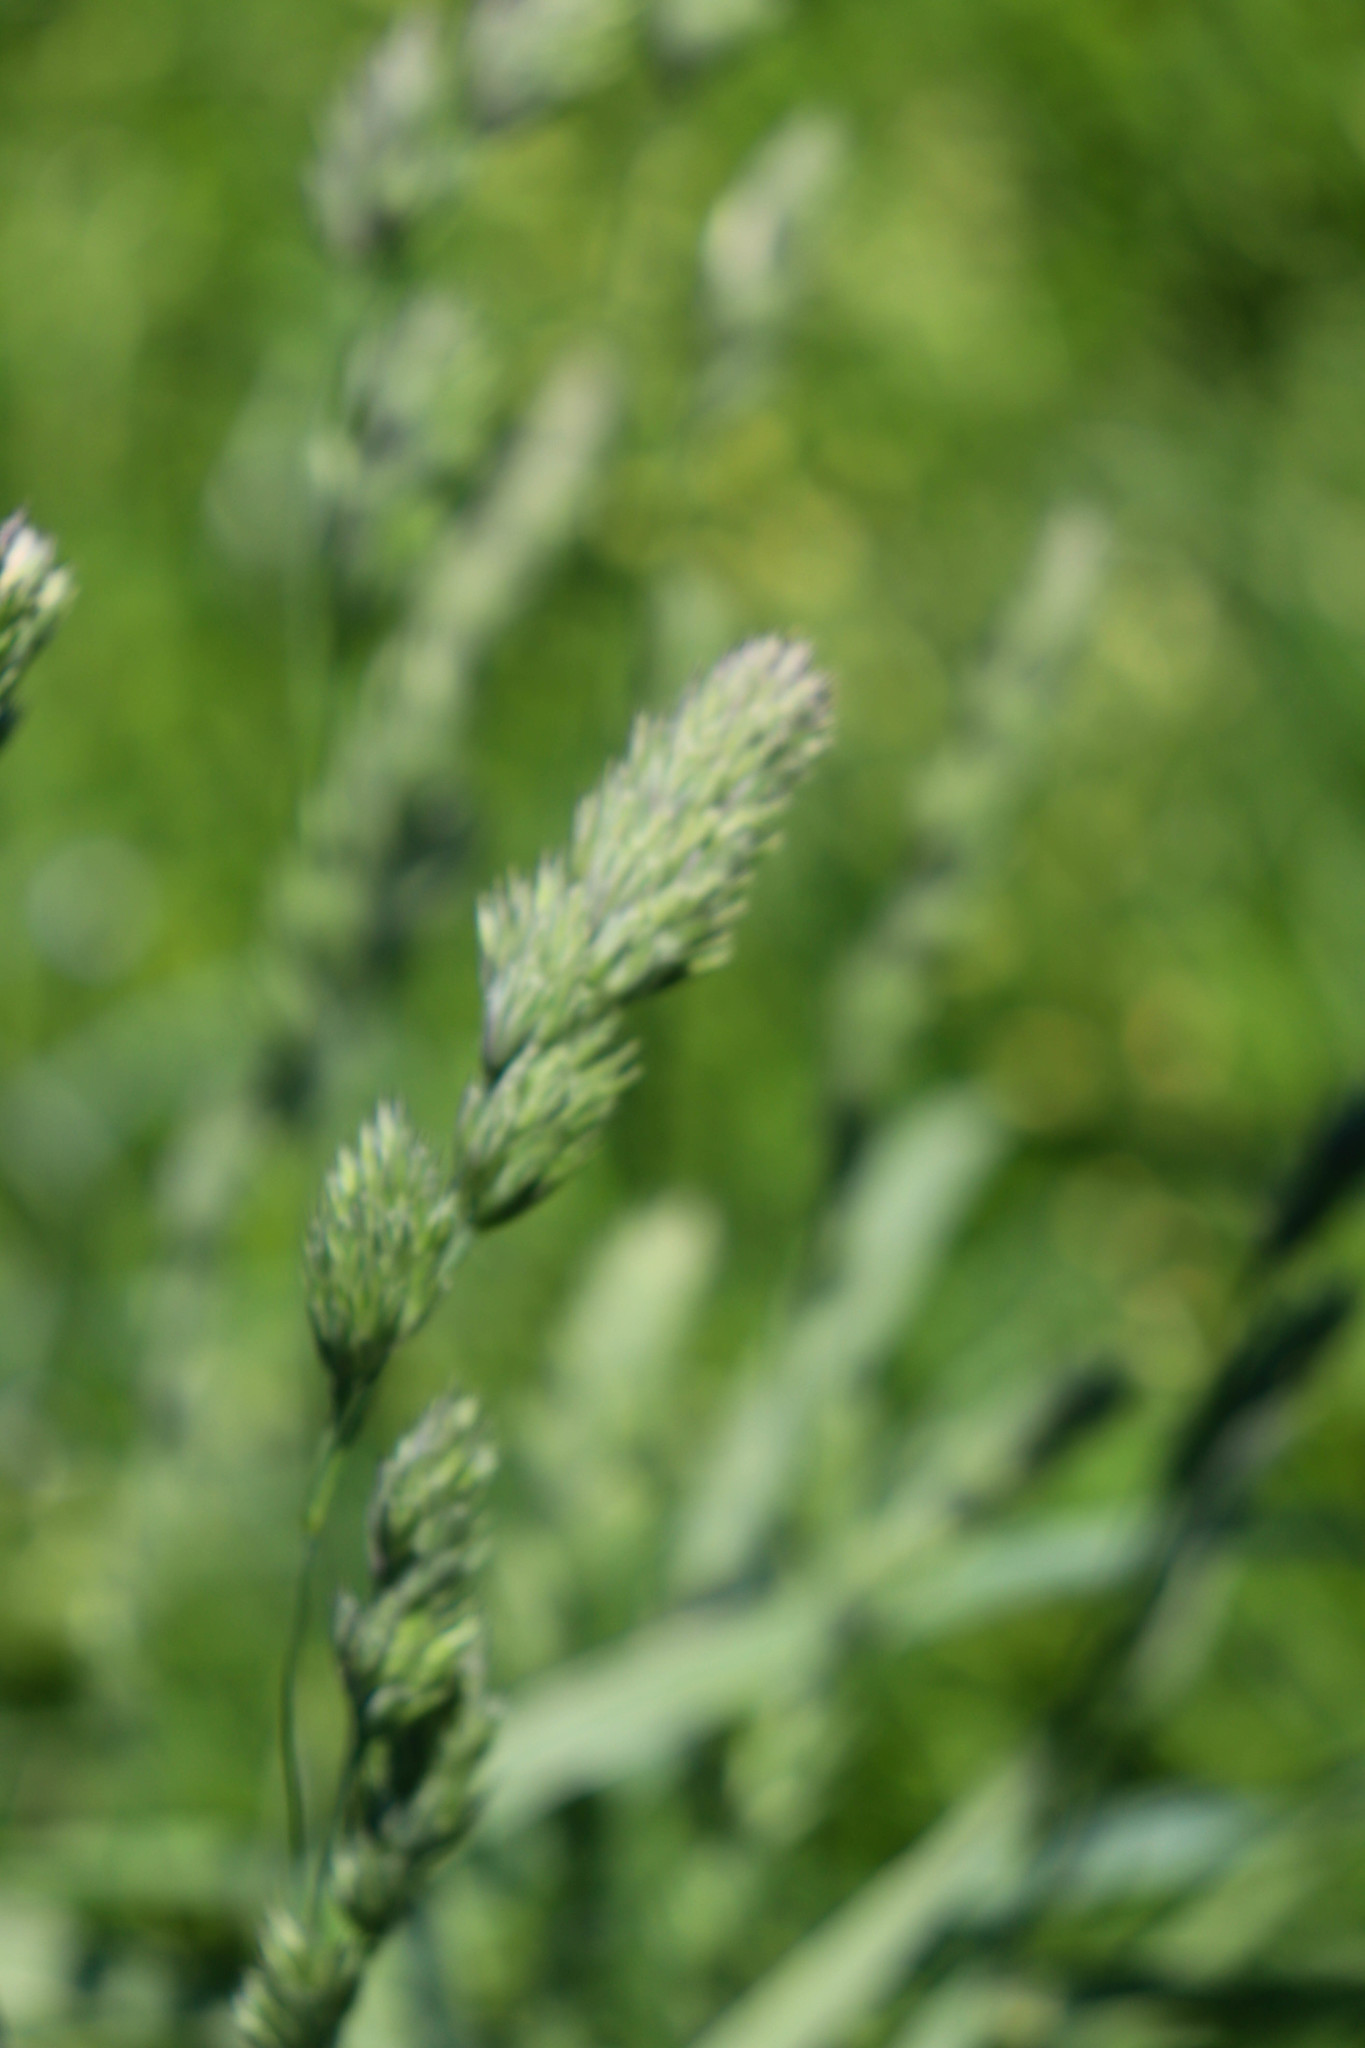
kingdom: Plantae
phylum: Tracheophyta
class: Liliopsida
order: Poales
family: Poaceae
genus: Dactylis
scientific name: Dactylis glomerata
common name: Orchardgrass
